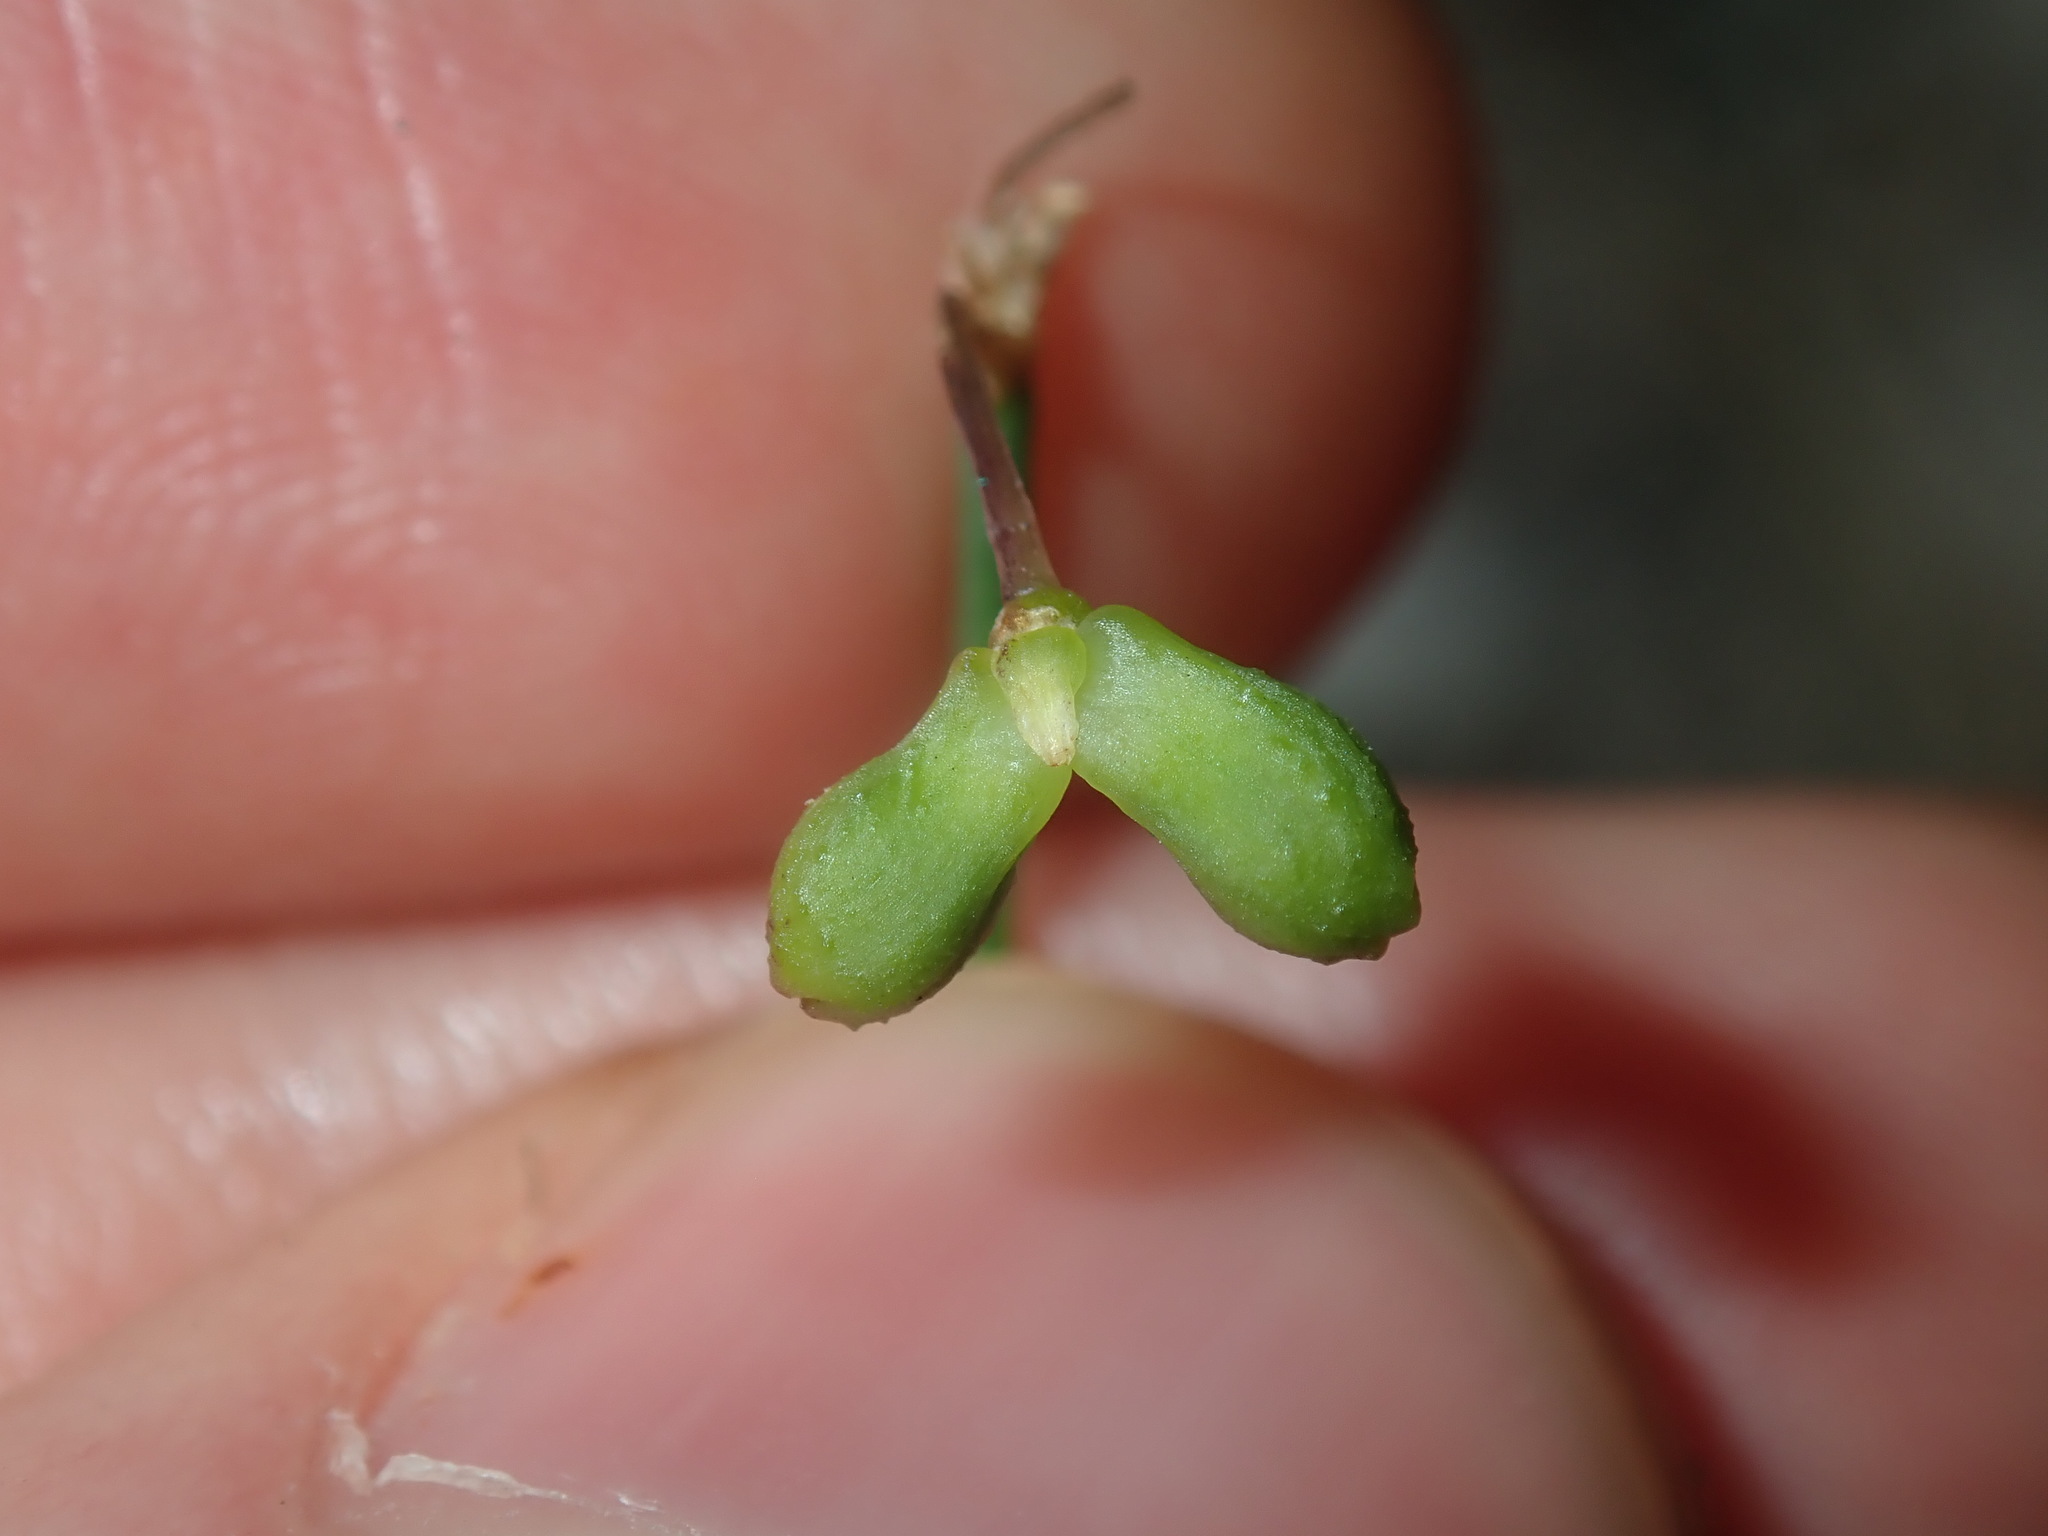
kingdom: Plantae
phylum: Tracheophyta
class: Liliopsida
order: Asparagales
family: Asphodelaceae
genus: Tricoryne
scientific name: Tricoryne elatior
